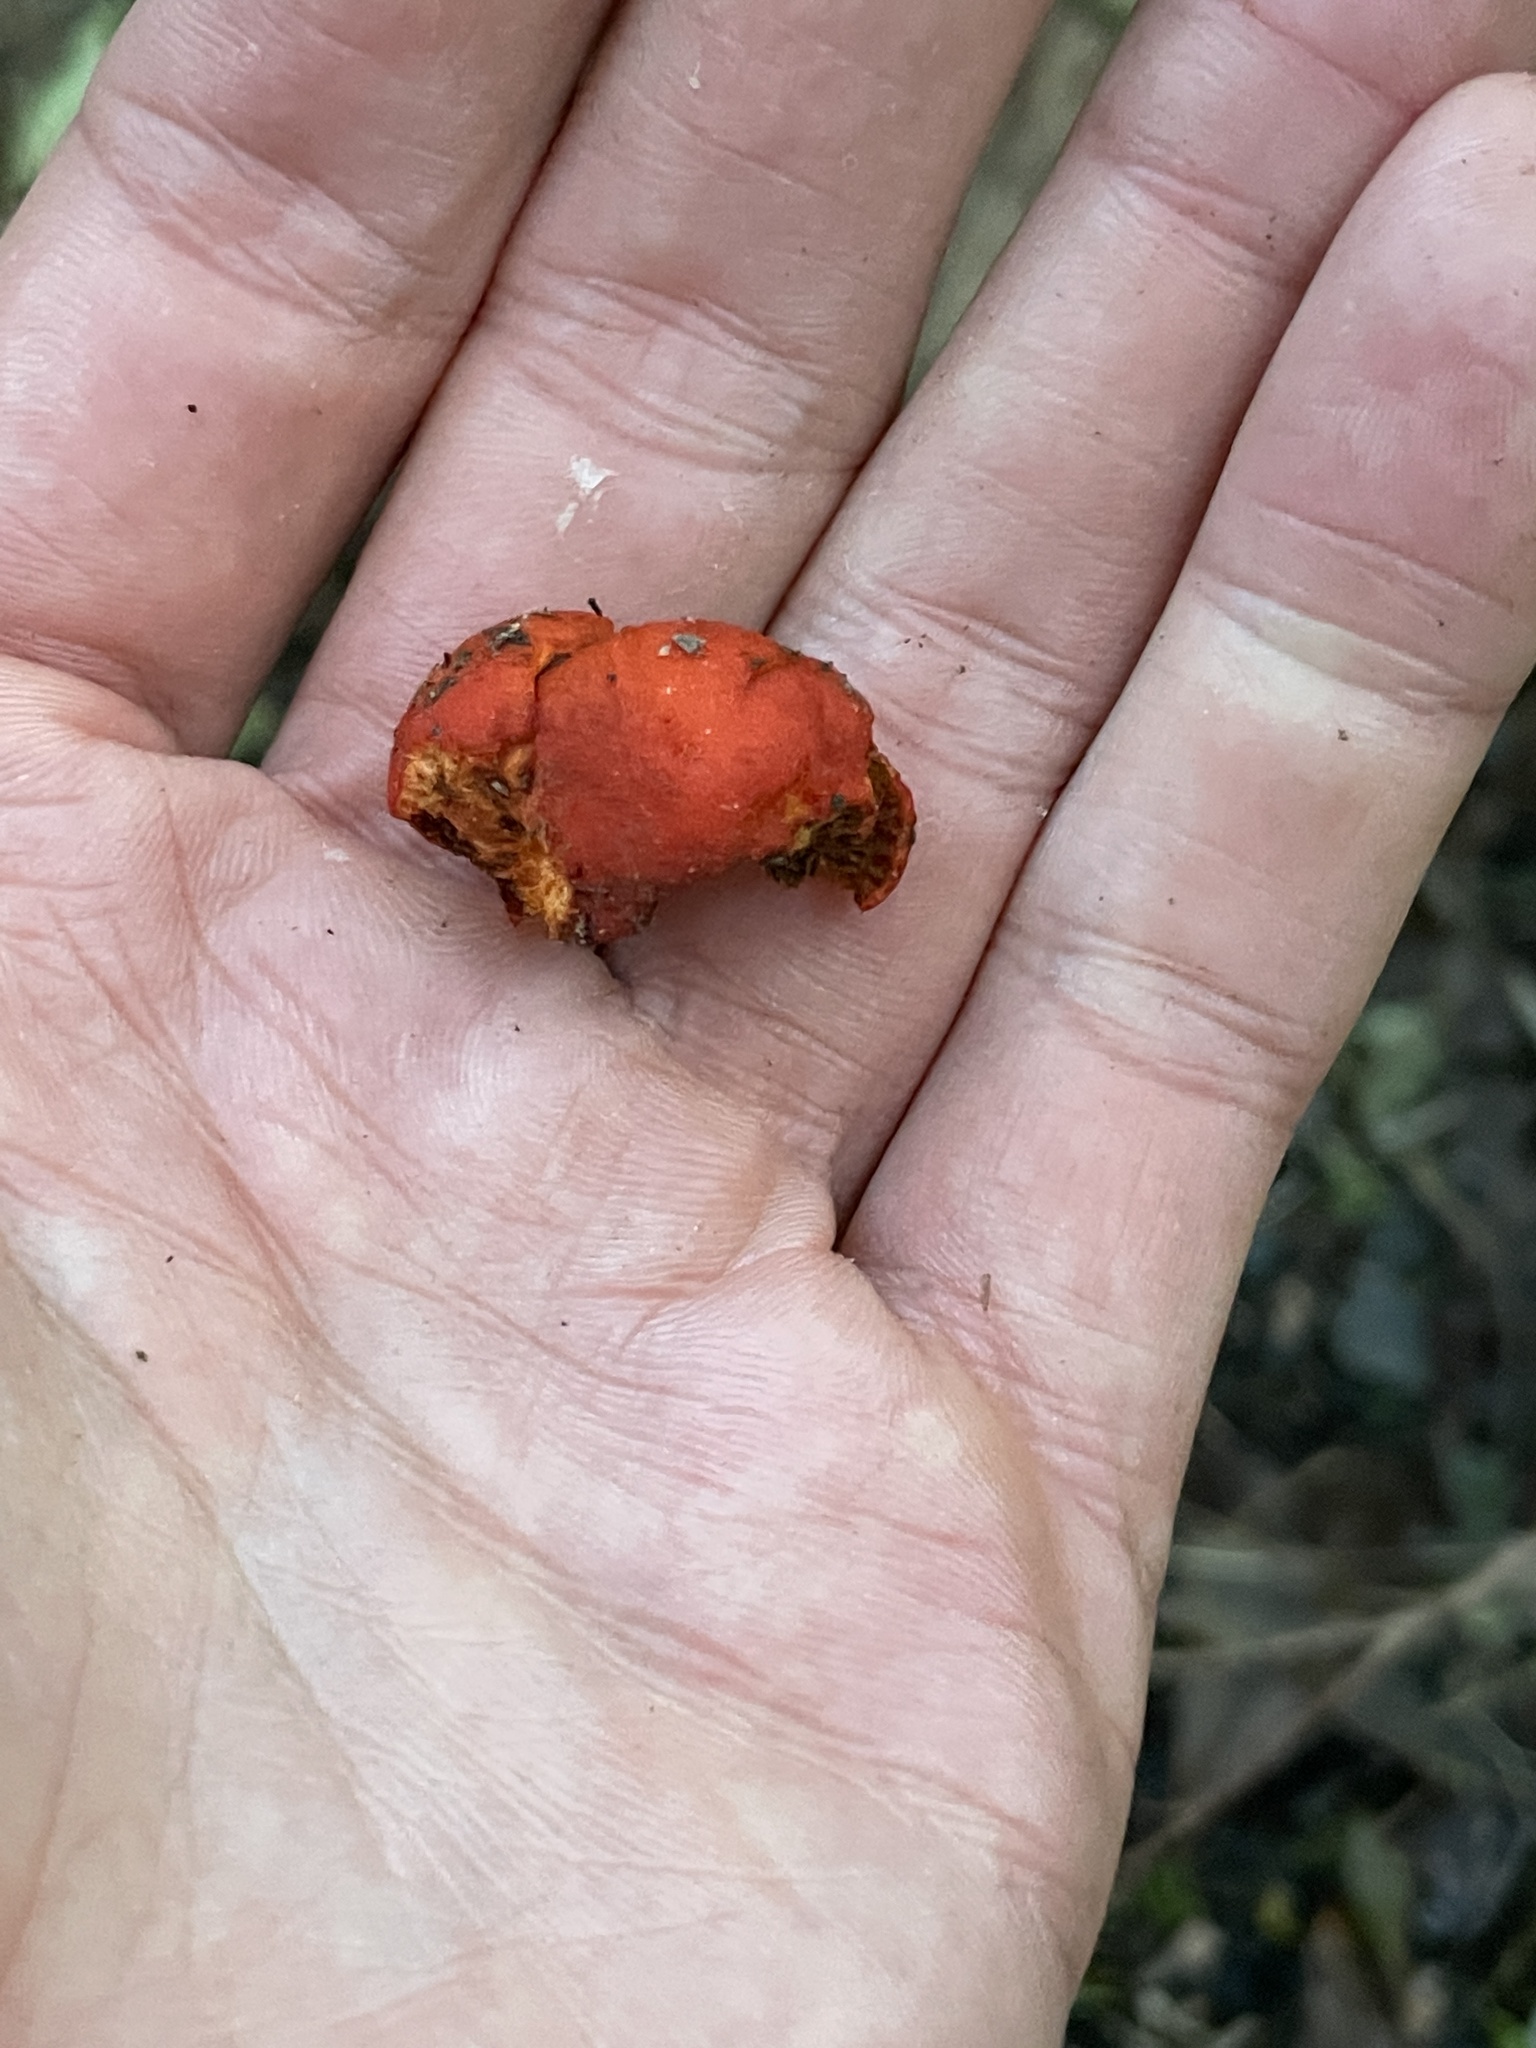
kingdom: Fungi
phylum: Basidiomycota
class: Agaricomycetes
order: Agaricales
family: Strophariaceae
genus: Leratiomyces
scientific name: Leratiomyces erythrocephalus
